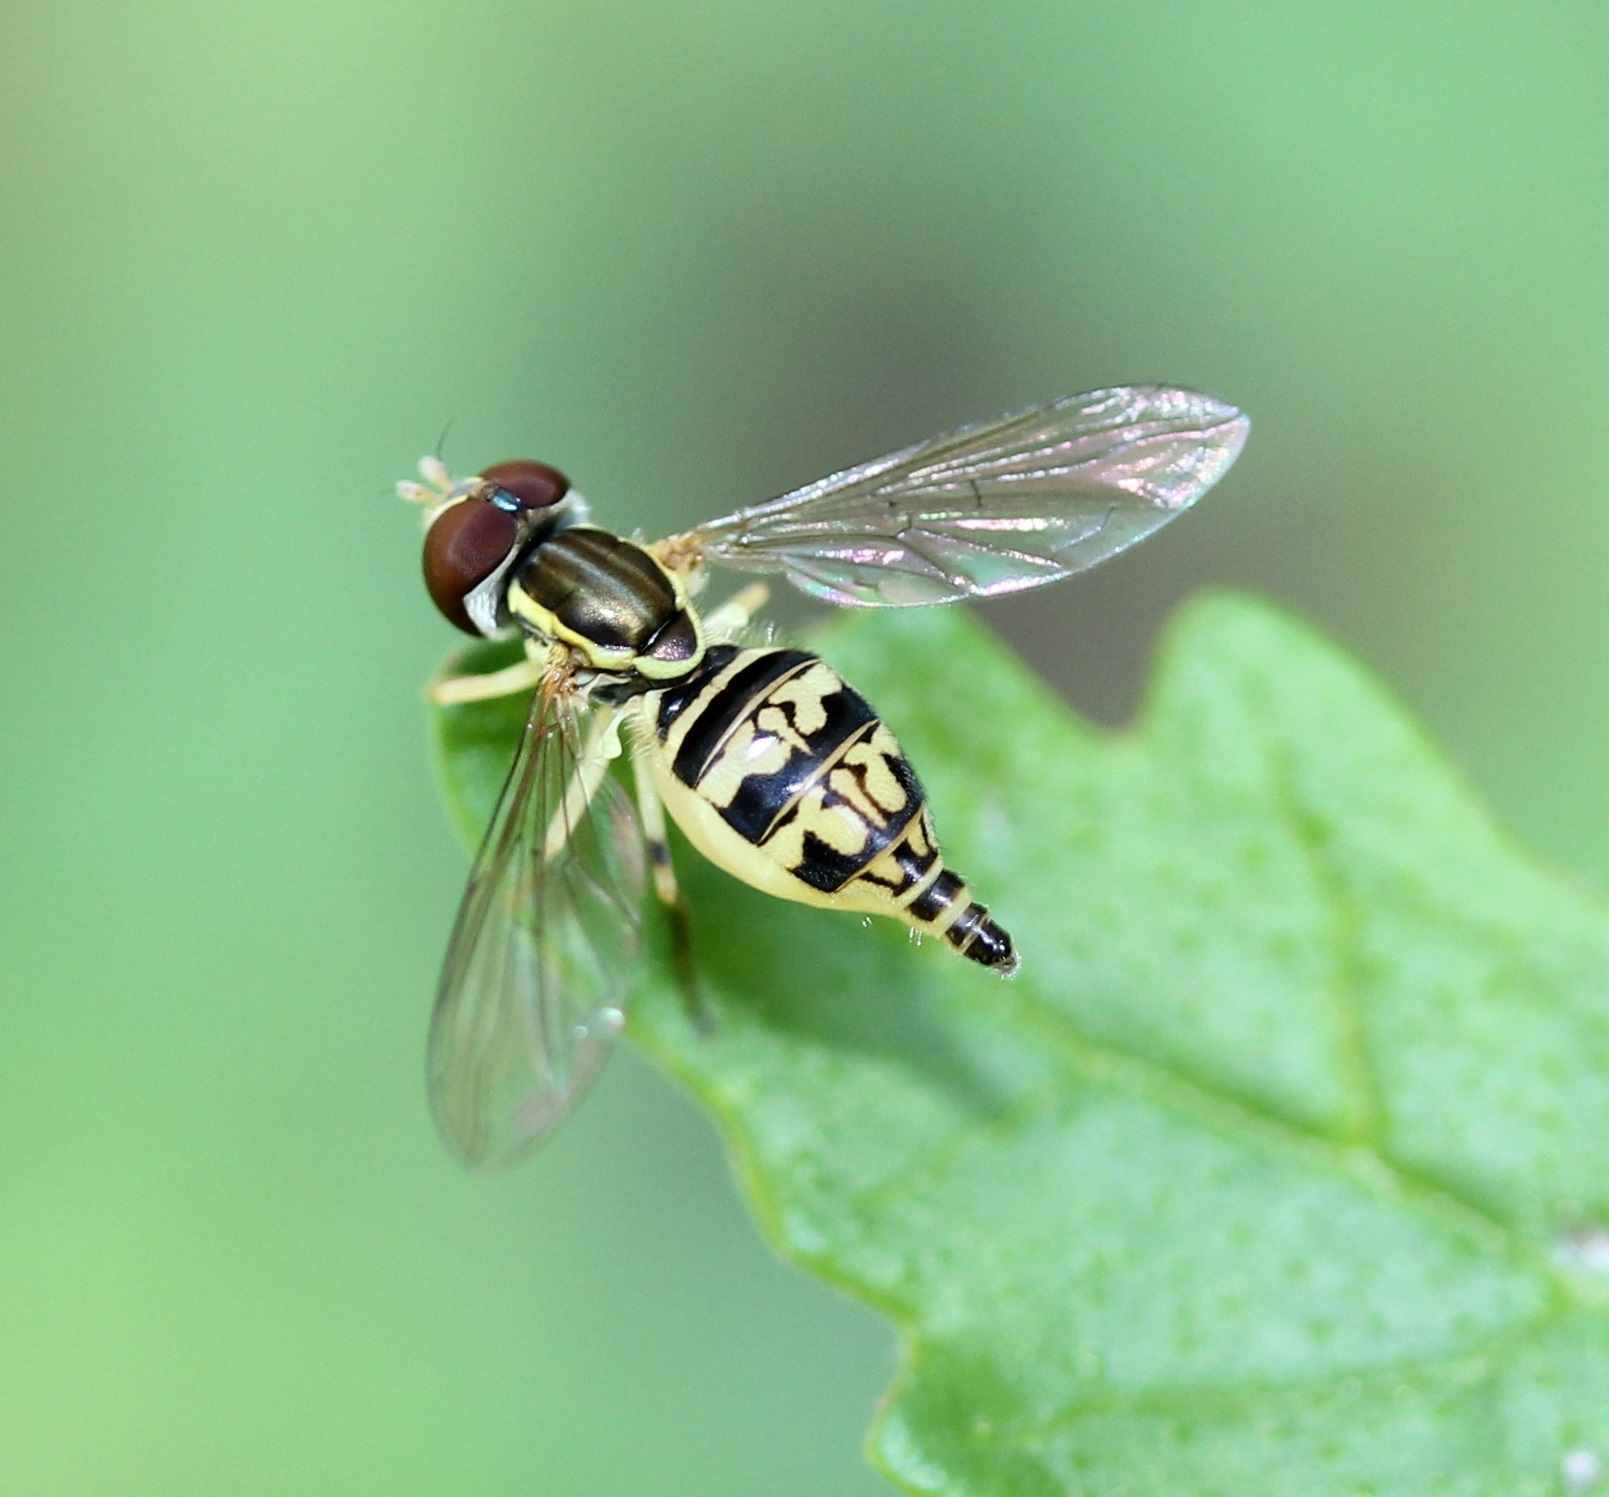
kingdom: Animalia
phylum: Arthropoda
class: Insecta
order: Diptera
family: Syrphidae
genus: Toxomerus
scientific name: Toxomerus geminatus
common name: Eastern calligrapher
